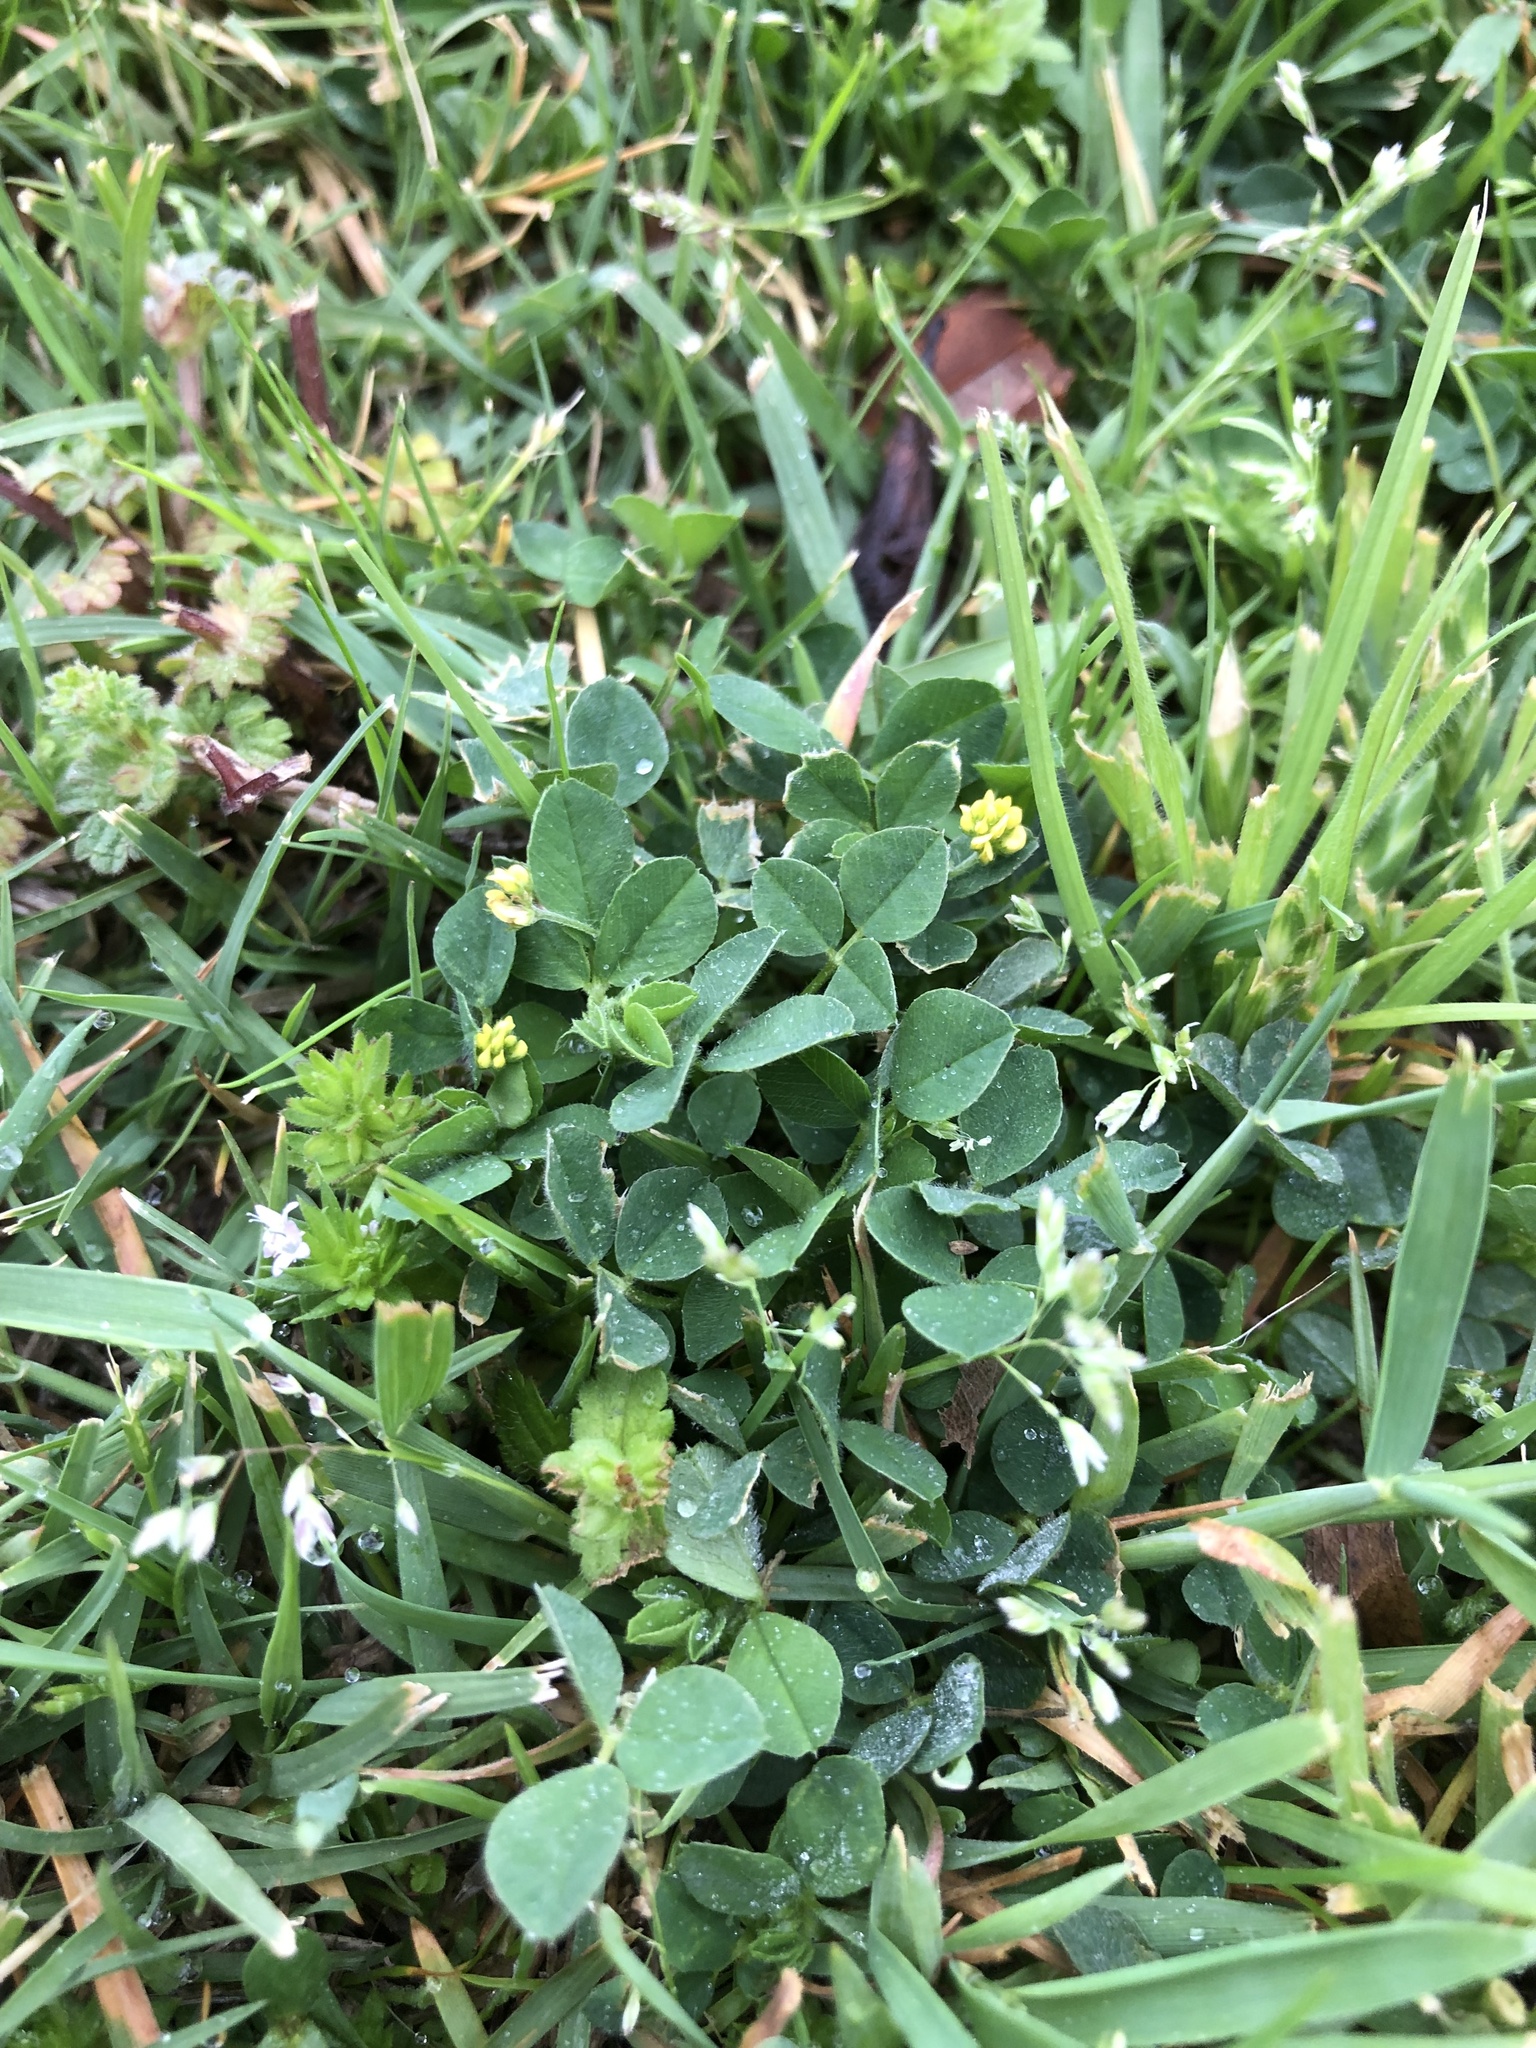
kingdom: Plantae
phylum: Tracheophyta
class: Magnoliopsida
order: Fabales
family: Fabaceae
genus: Medicago
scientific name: Medicago lupulina
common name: Black medick
